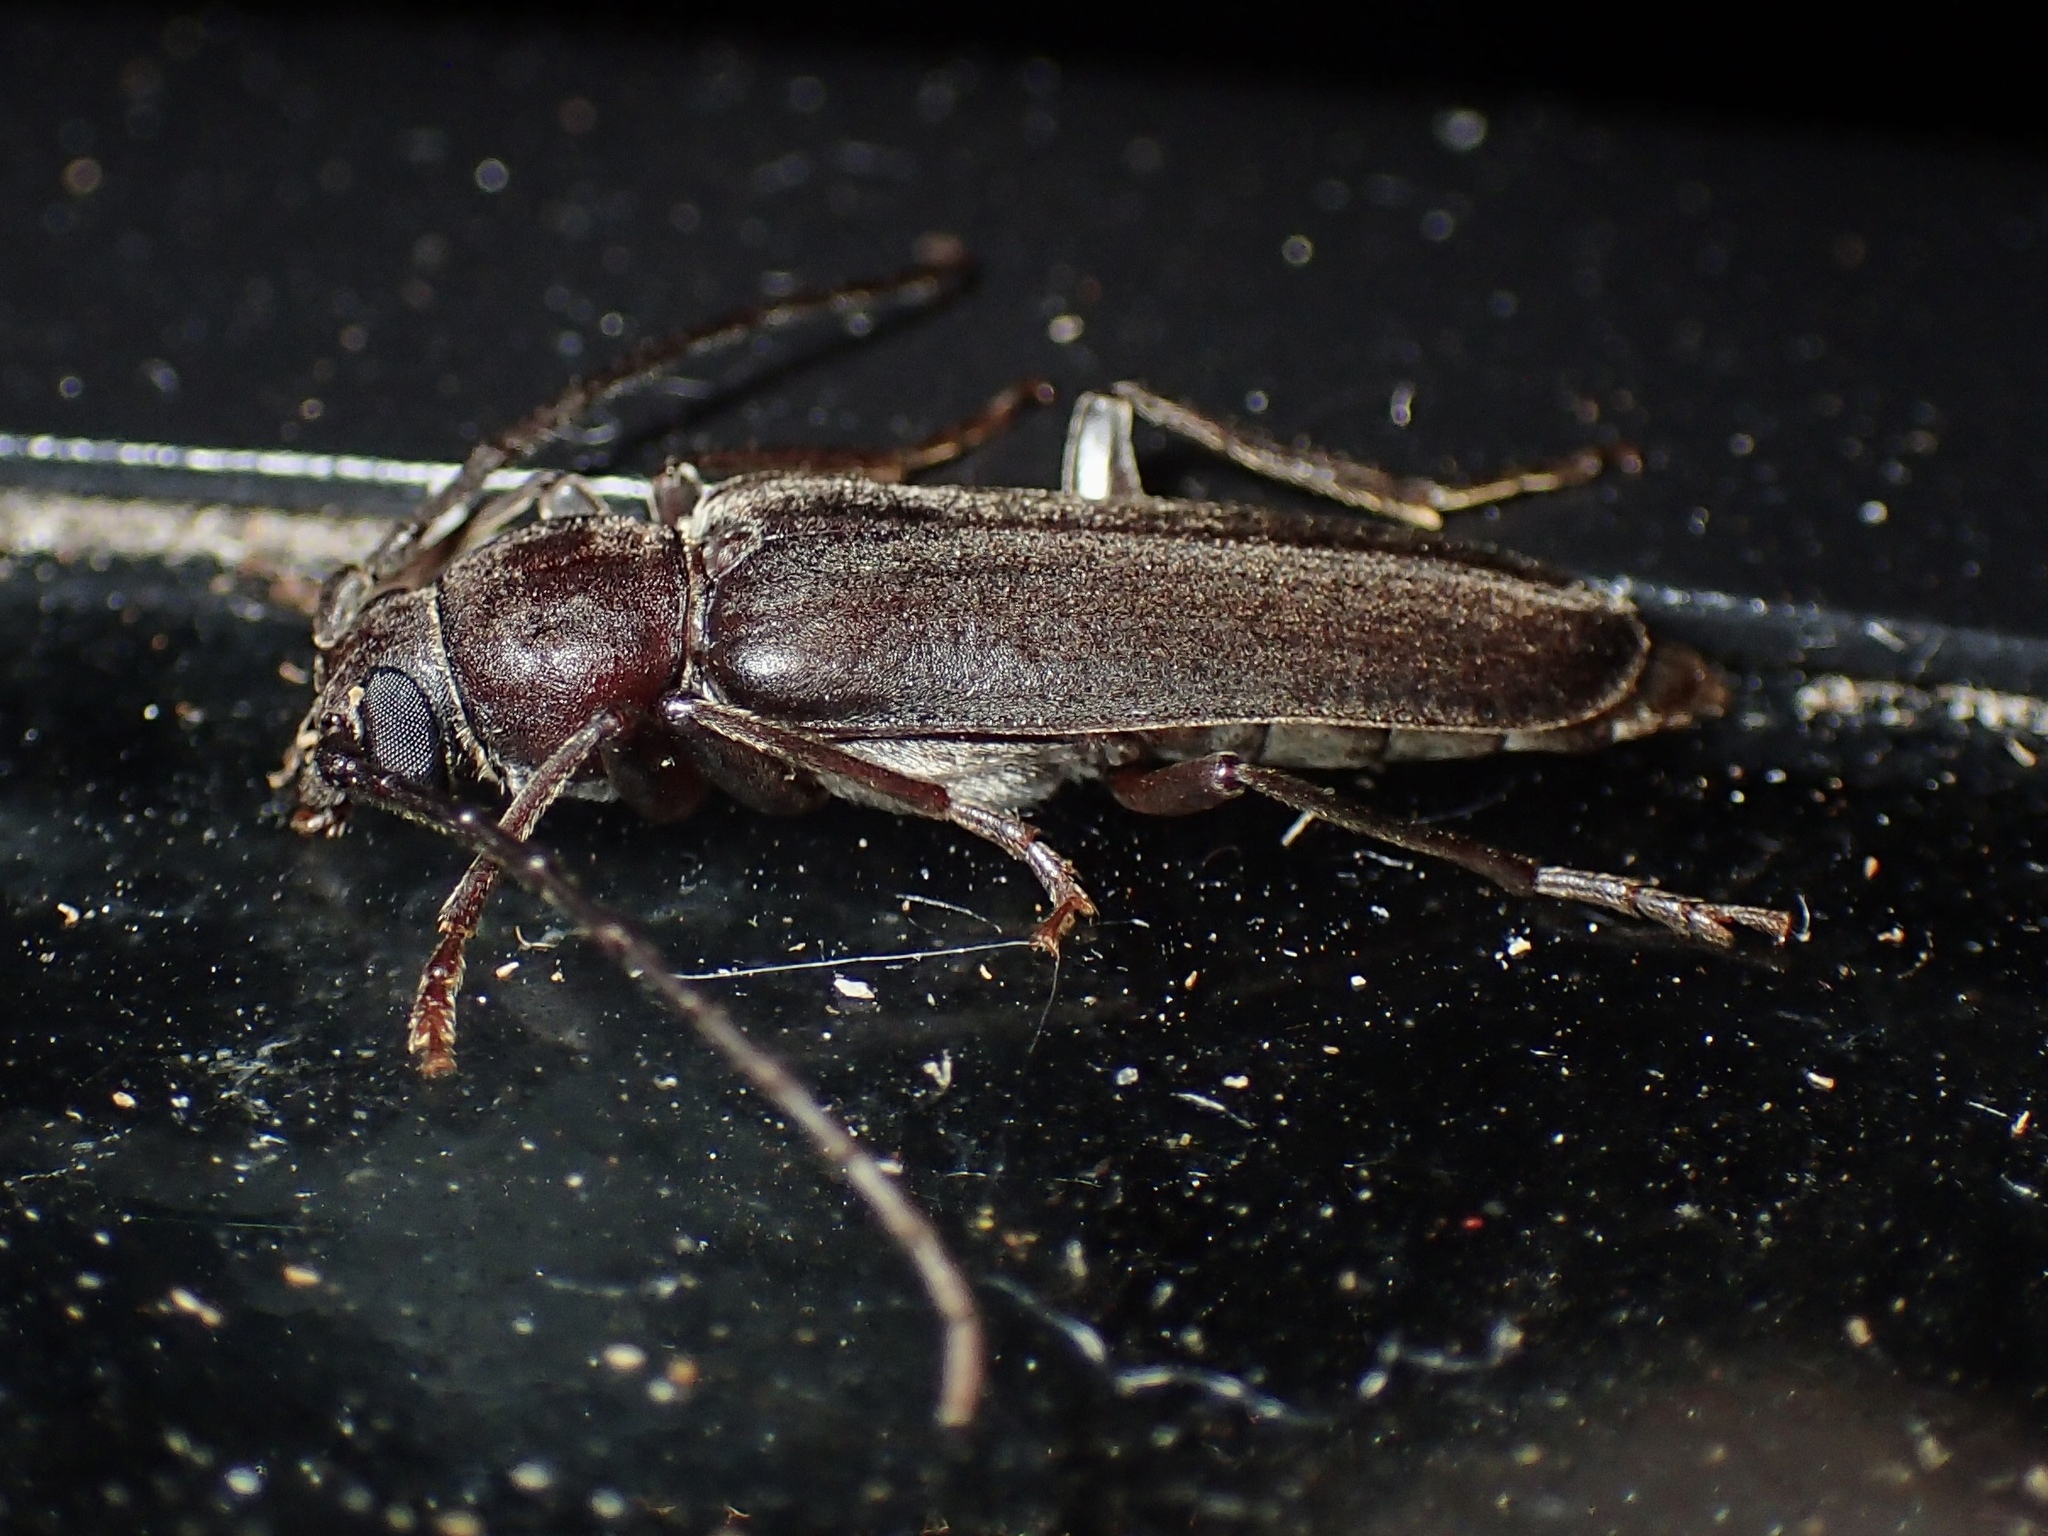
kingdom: Animalia
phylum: Arthropoda
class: Insecta
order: Coleoptera
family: Cerambycidae
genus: Arhopalus
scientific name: Arhopalus ferus
